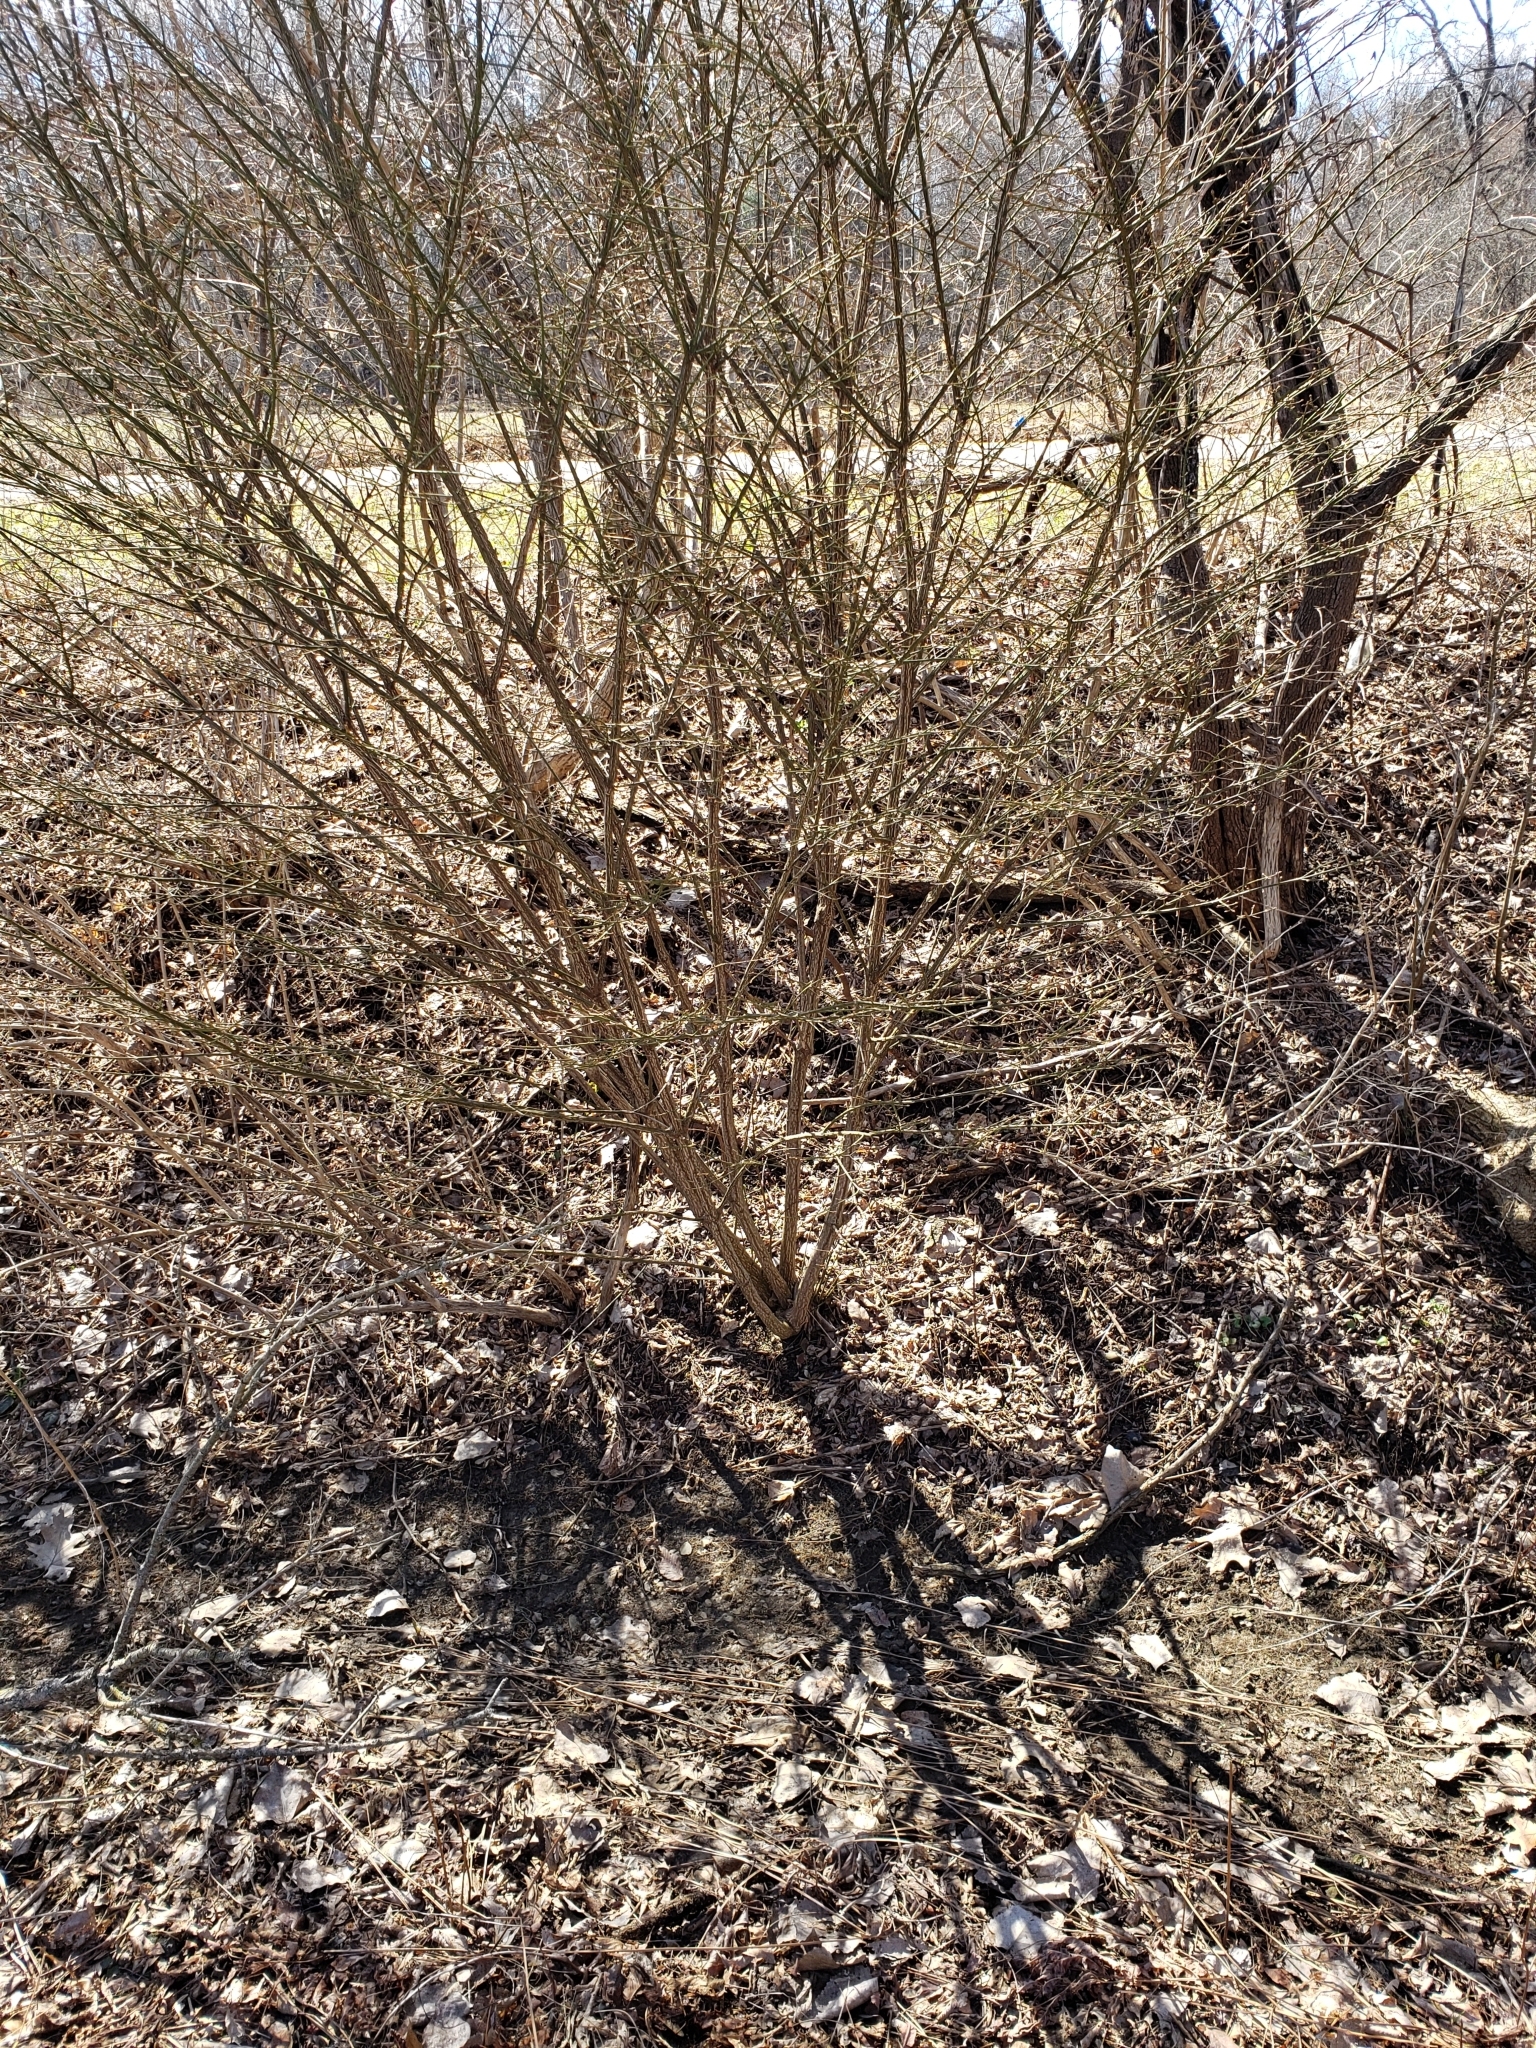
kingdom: Plantae
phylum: Tracheophyta
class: Magnoliopsida
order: Celastrales
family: Celastraceae
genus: Euonymus
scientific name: Euonymus alatus
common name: Winged euonymus
